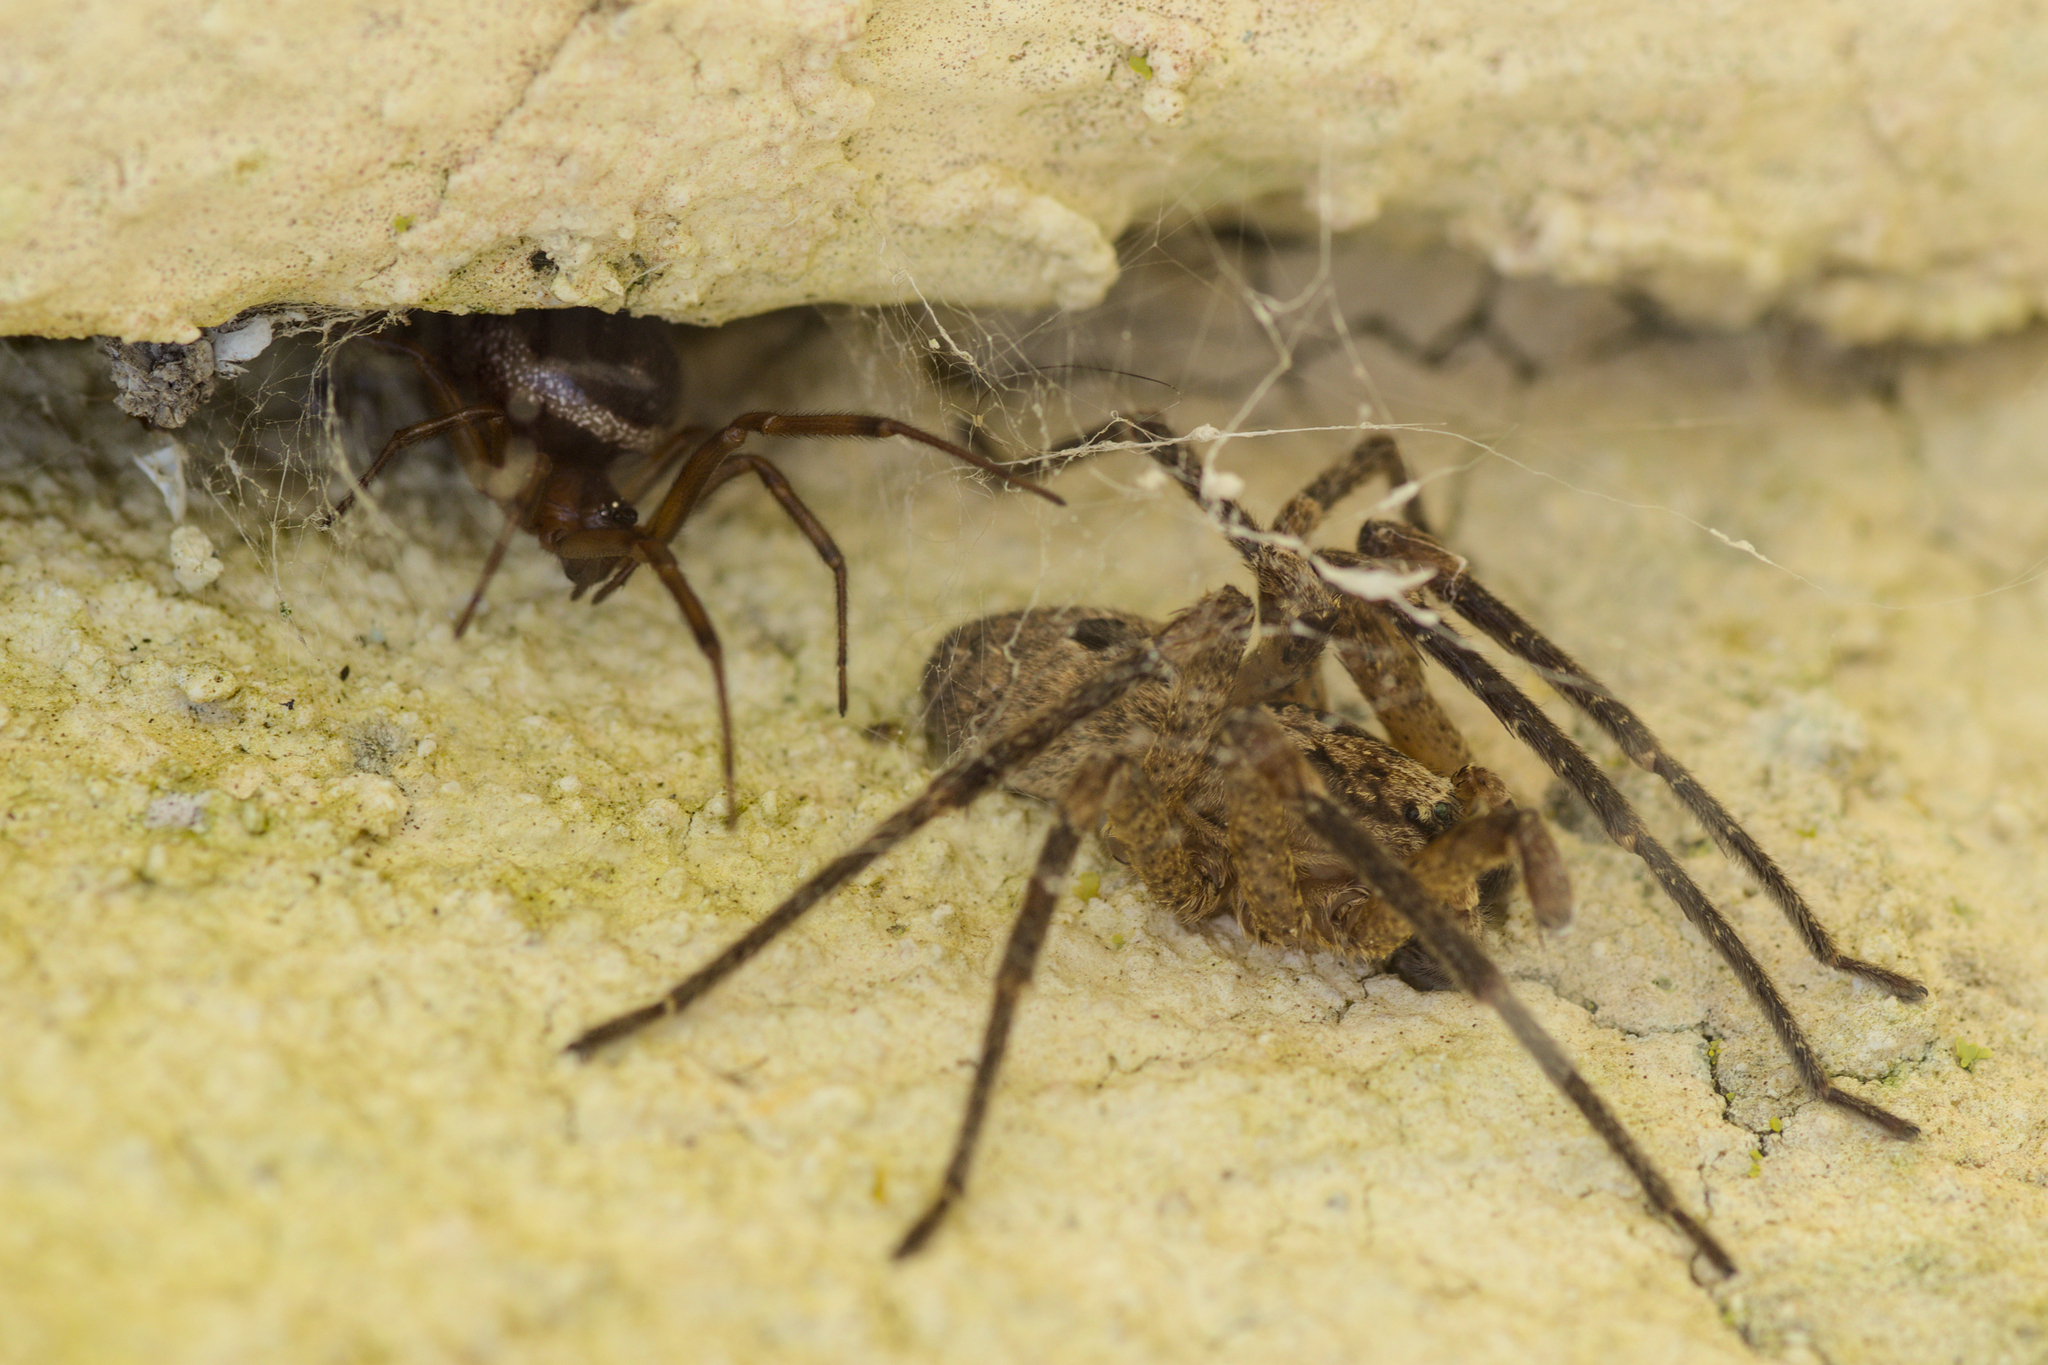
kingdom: Animalia
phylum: Arthropoda
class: Arachnida
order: Araneae
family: Zoropsidae
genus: Zoropsis
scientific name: Zoropsis spinimana
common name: Zoropsid spider
